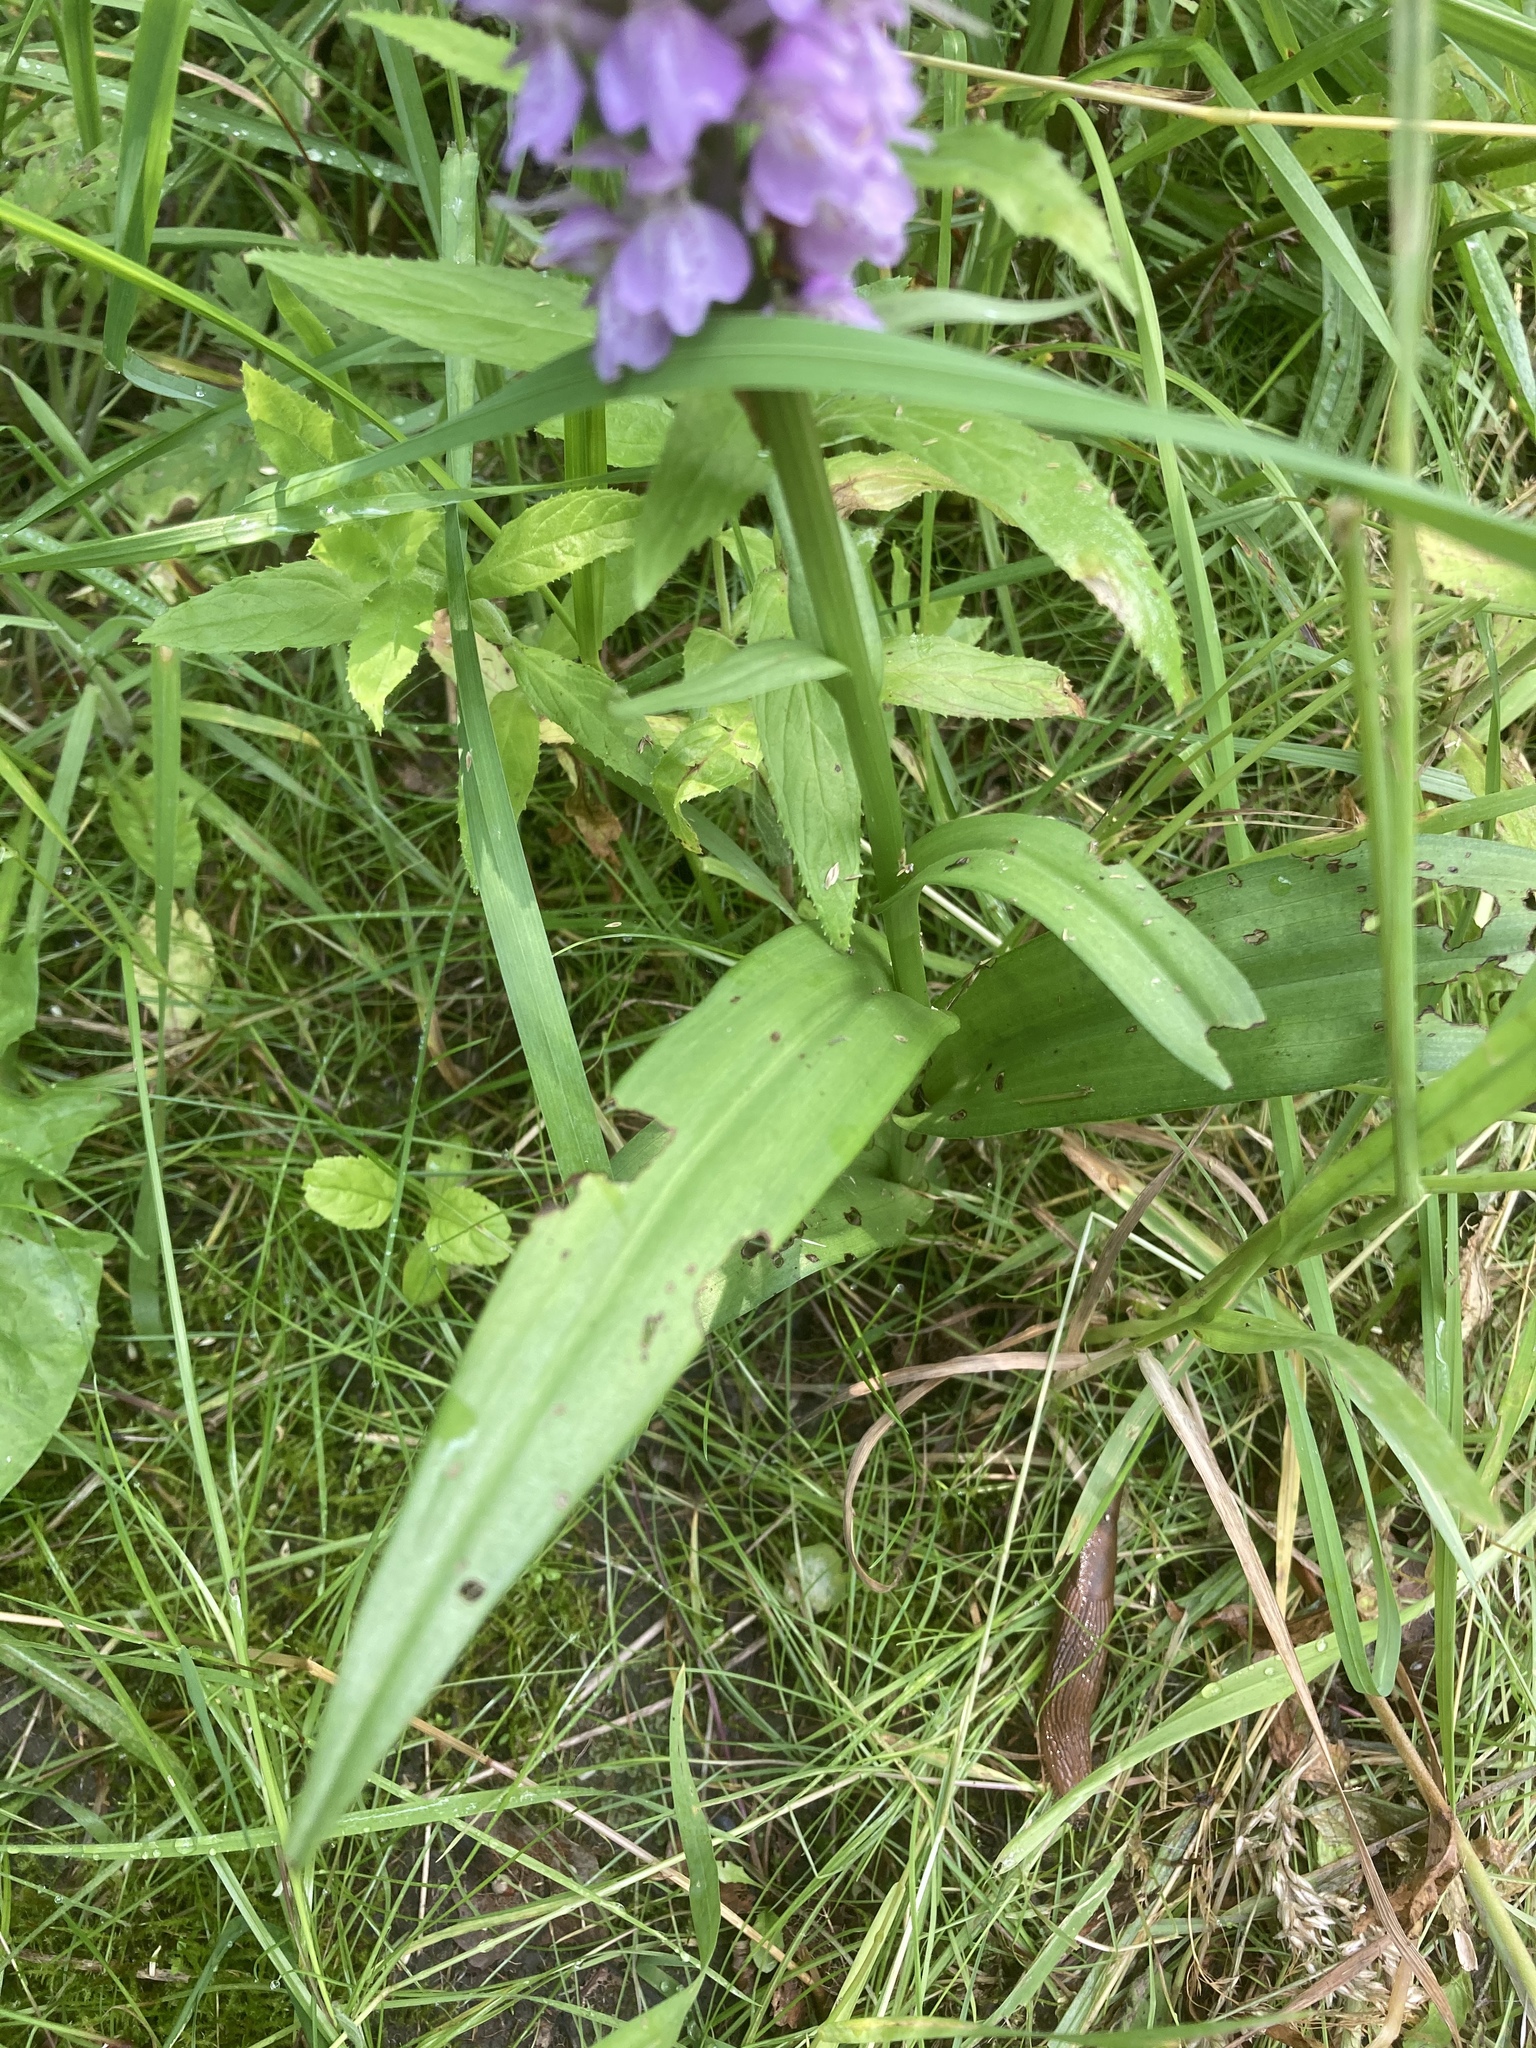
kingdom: Plantae
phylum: Tracheophyta
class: Liliopsida
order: Asparagales
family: Orchidaceae
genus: Dactylorhiza
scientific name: Dactylorhiza majalis
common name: Marsh orchid
